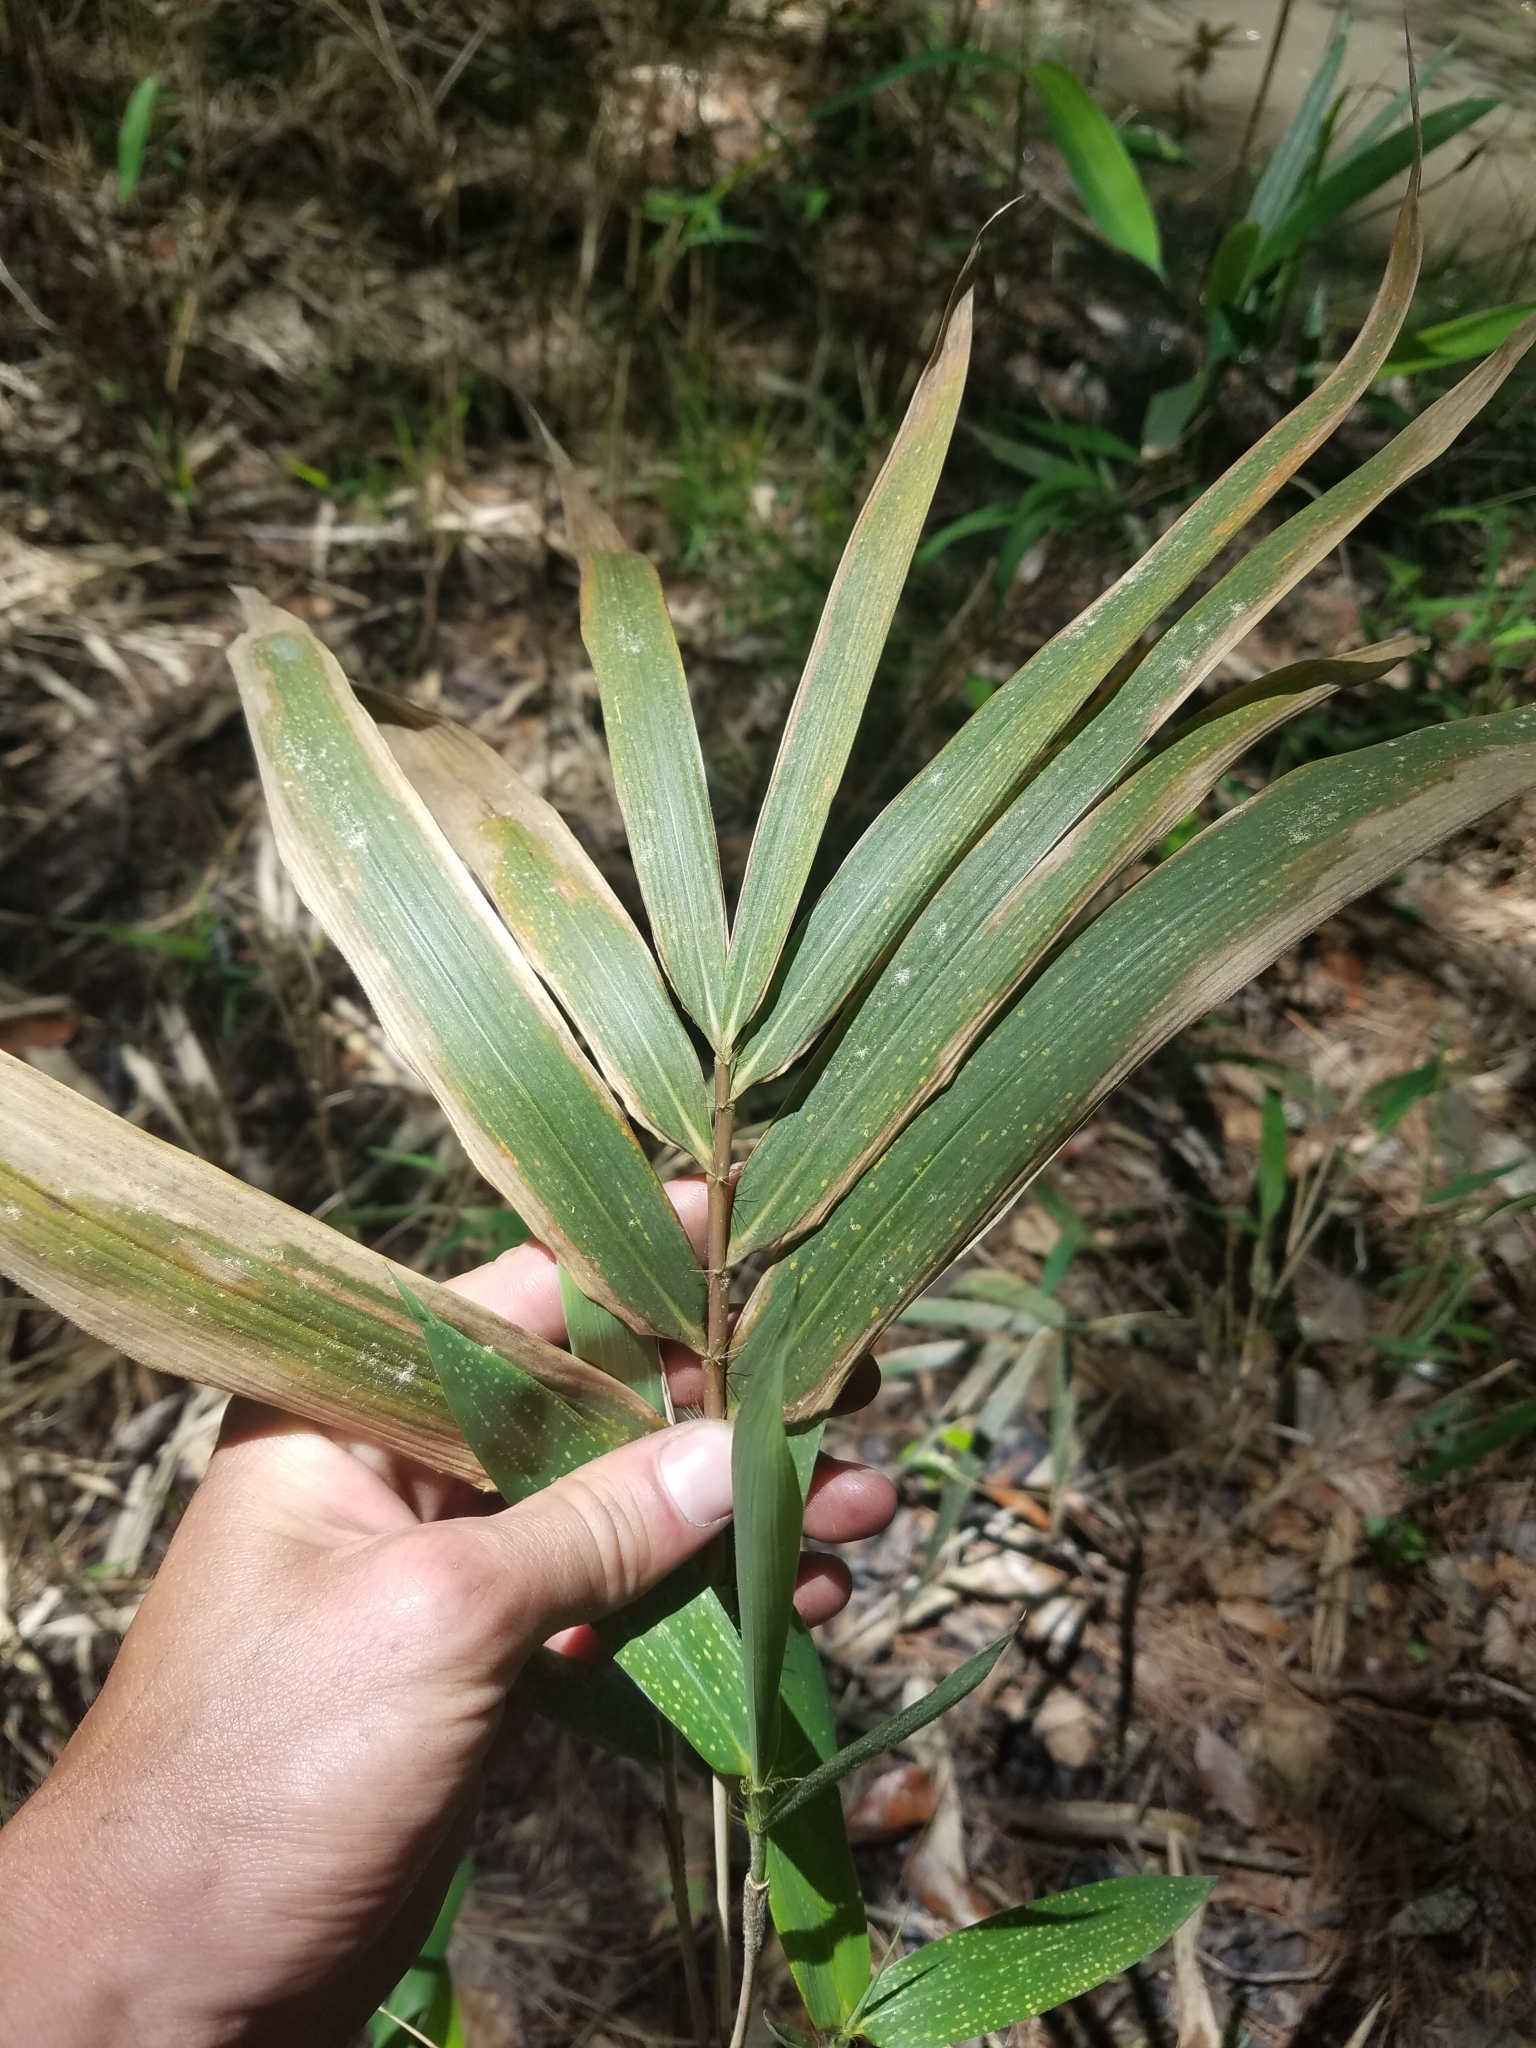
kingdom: Plantae
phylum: Tracheophyta
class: Liliopsida
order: Poales
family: Poaceae
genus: Arundinaria
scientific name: Arundinaria tecta
